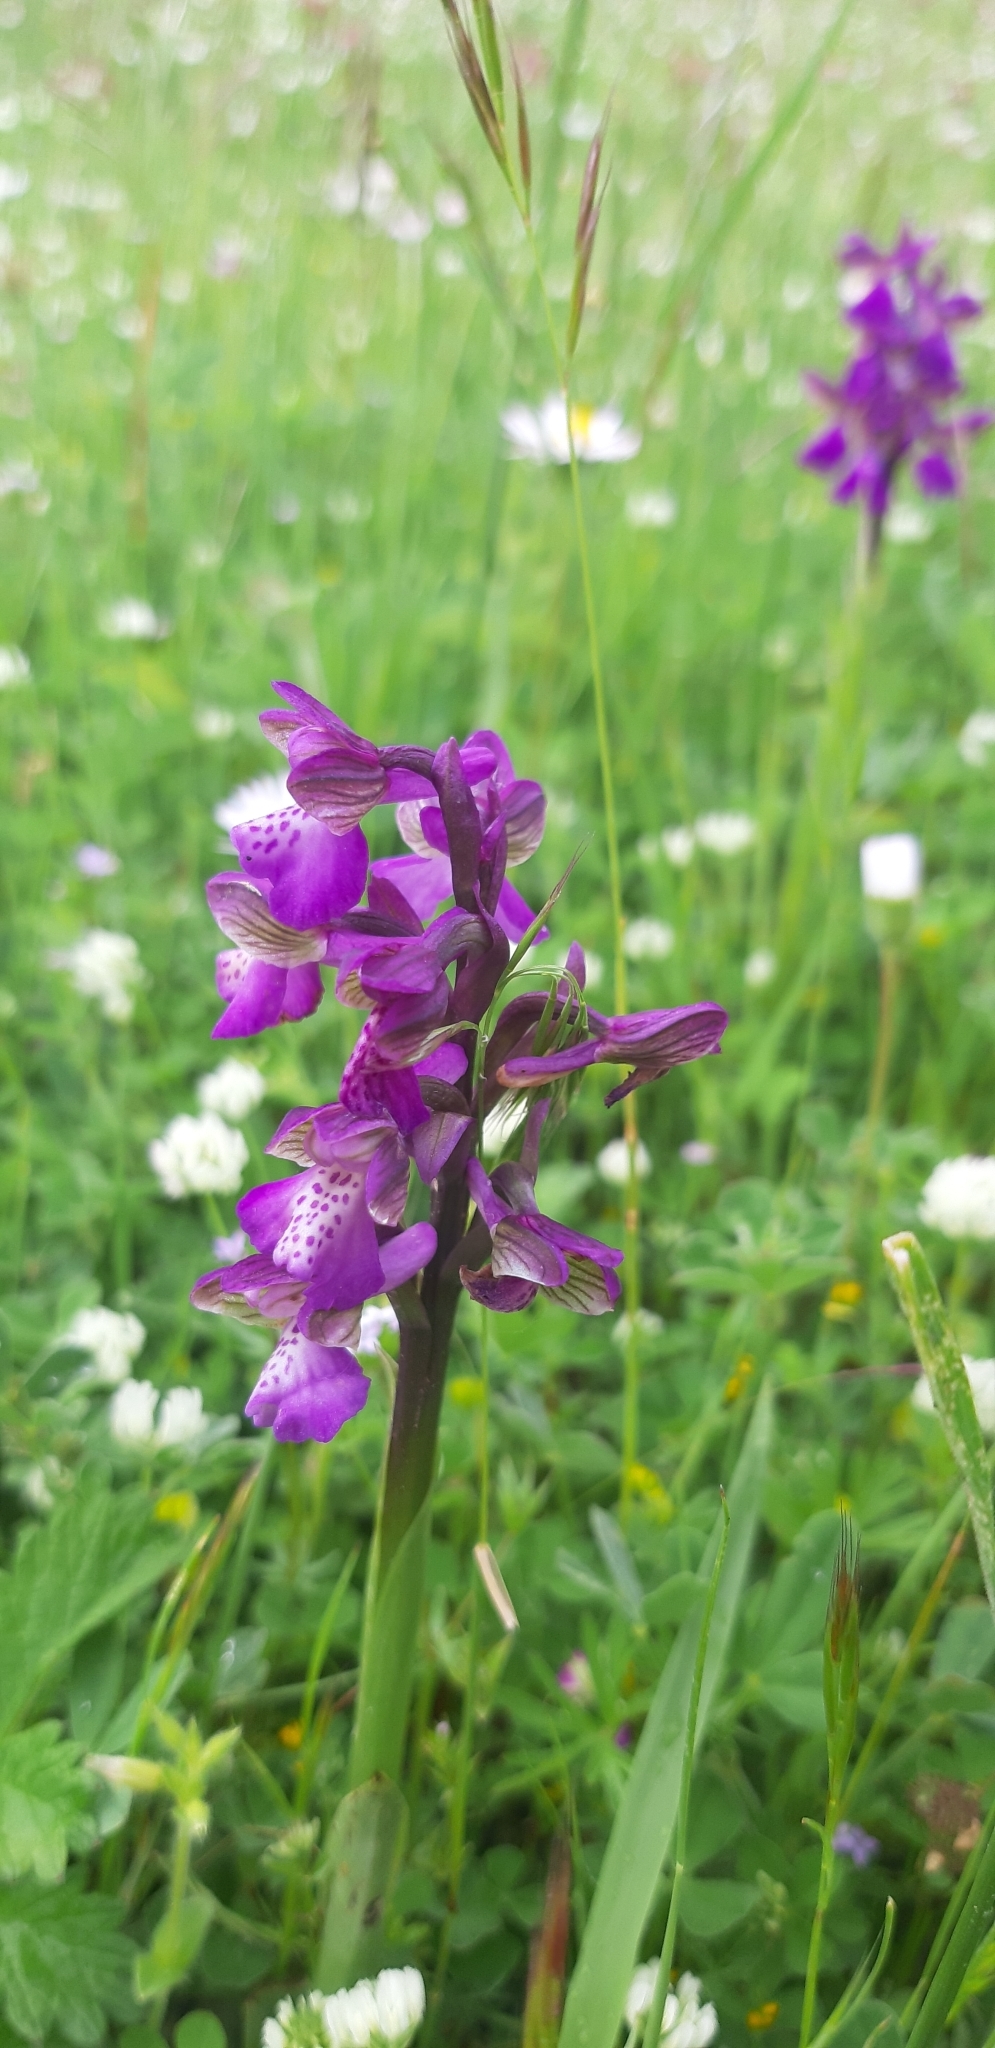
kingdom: Plantae
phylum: Tracheophyta
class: Liliopsida
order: Asparagales
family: Orchidaceae
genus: Anacamptis
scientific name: Anacamptis morio
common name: Green-winged orchid
